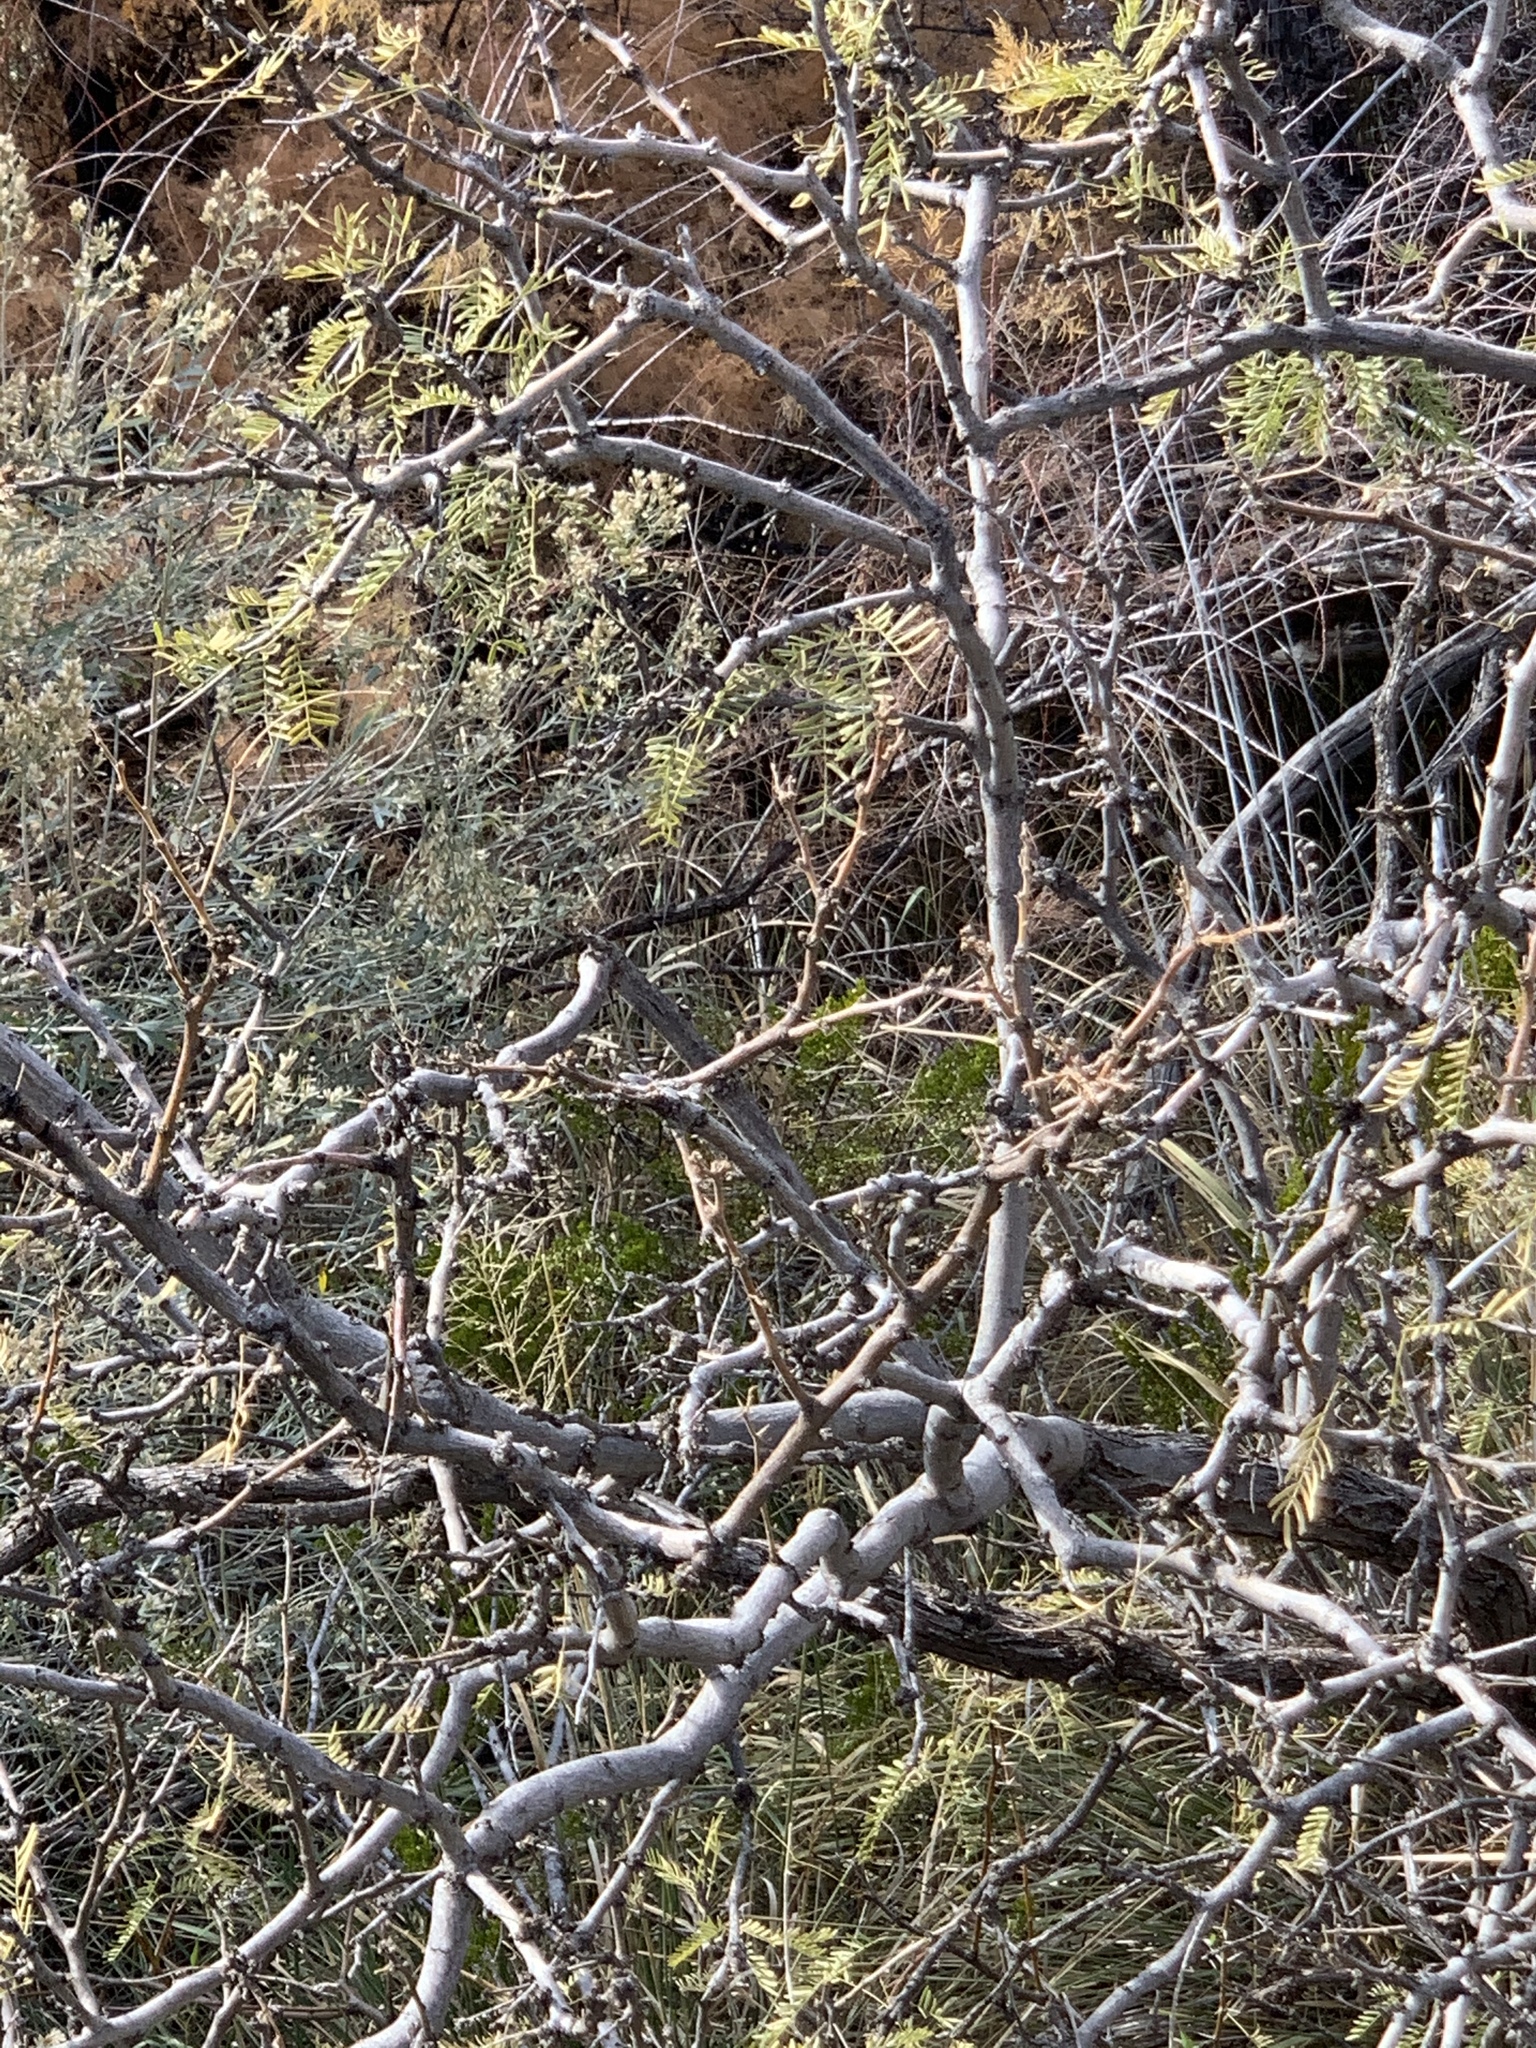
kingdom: Plantae
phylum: Tracheophyta
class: Magnoliopsida
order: Fabales
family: Fabaceae
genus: Prosopis
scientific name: Prosopis glandulosa
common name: Honey mesquite
